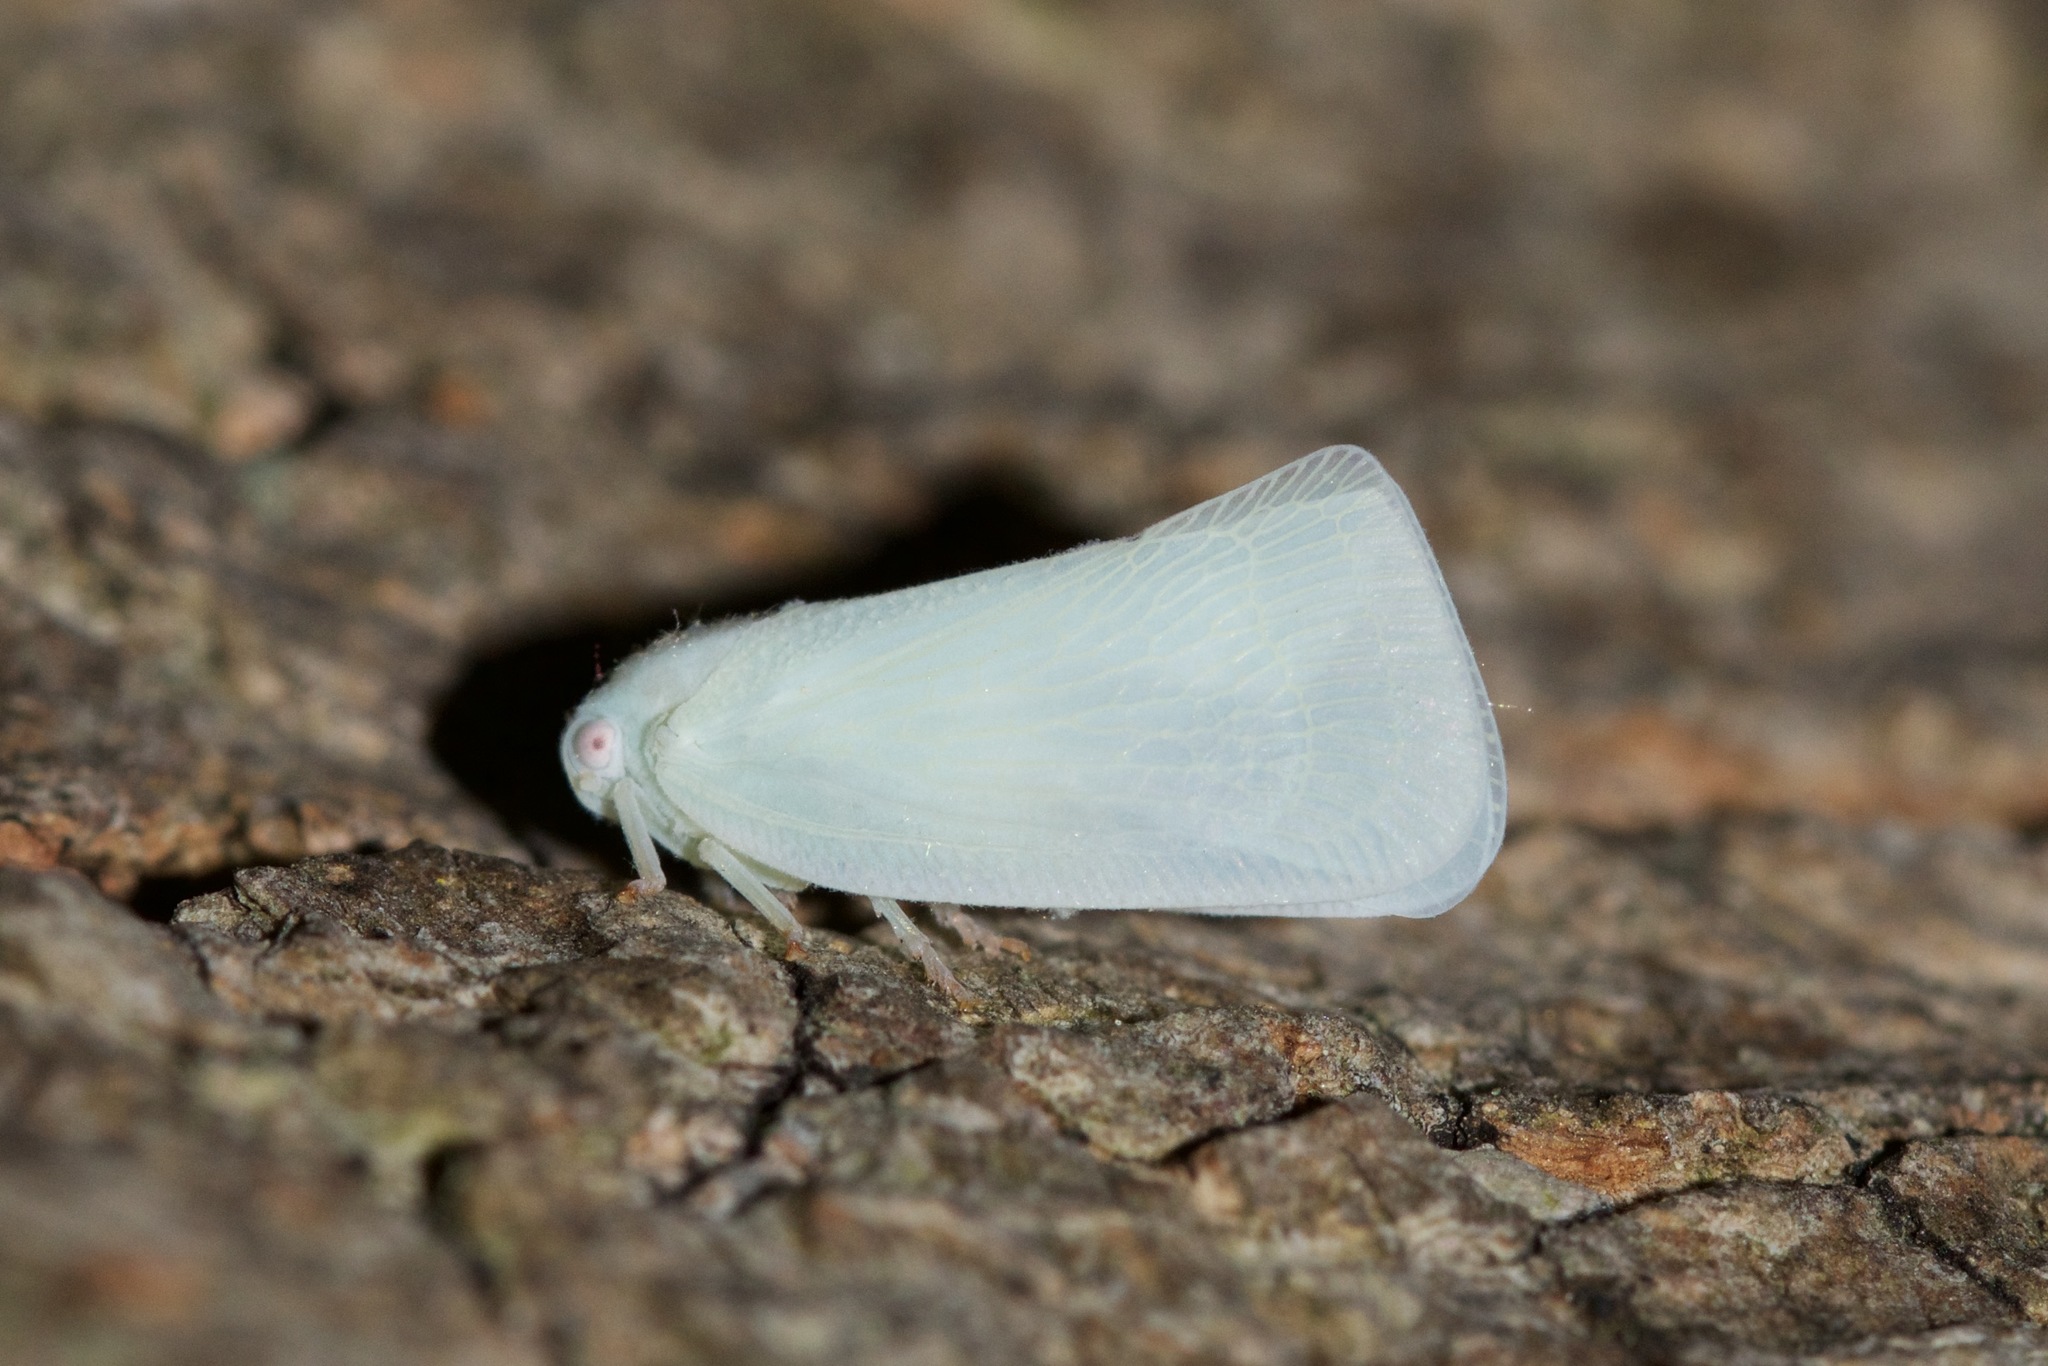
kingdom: Animalia
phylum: Arthropoda
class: Insecta
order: Hemiptera
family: Flatidae
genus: Flatormenis
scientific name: Flatormenis proxima
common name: Northern flatid planthopper
